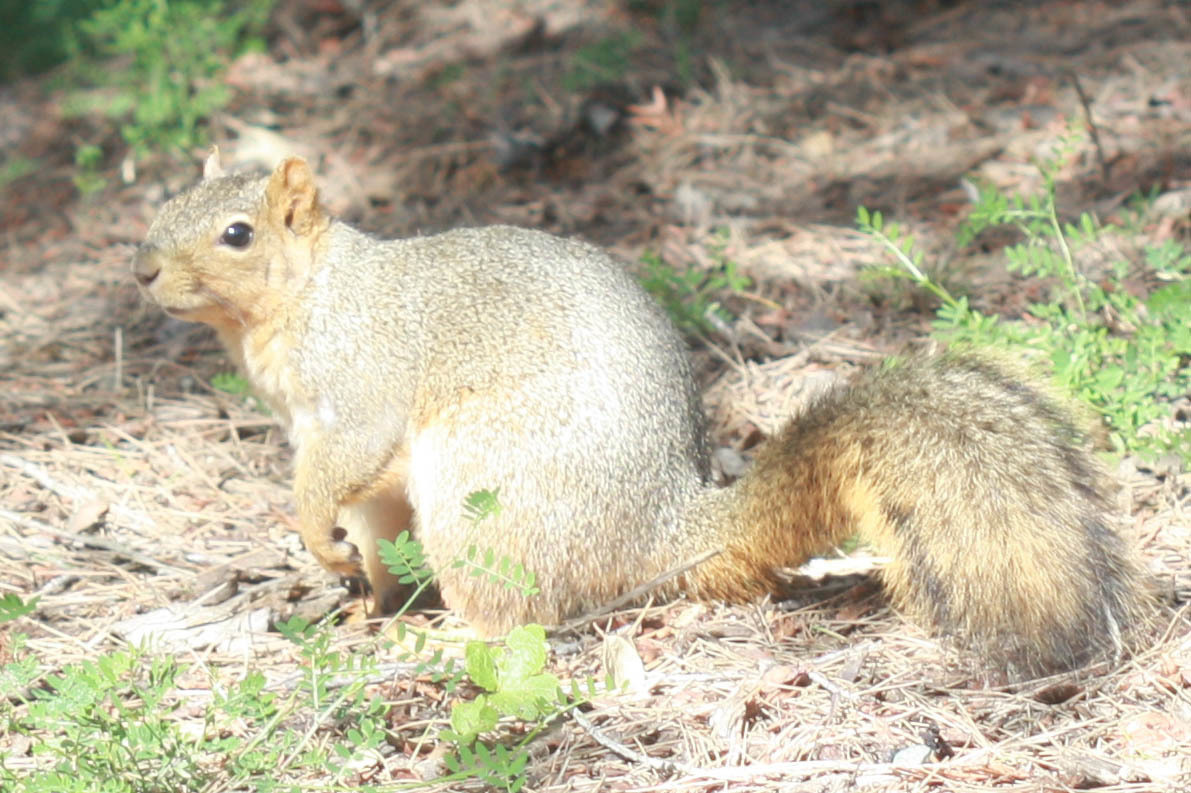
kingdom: Animalia
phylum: Chordata
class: Mammalia
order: Rodentia
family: Sciuridae
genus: Sciurus
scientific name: Sciurus niger
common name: Fox squirrel
